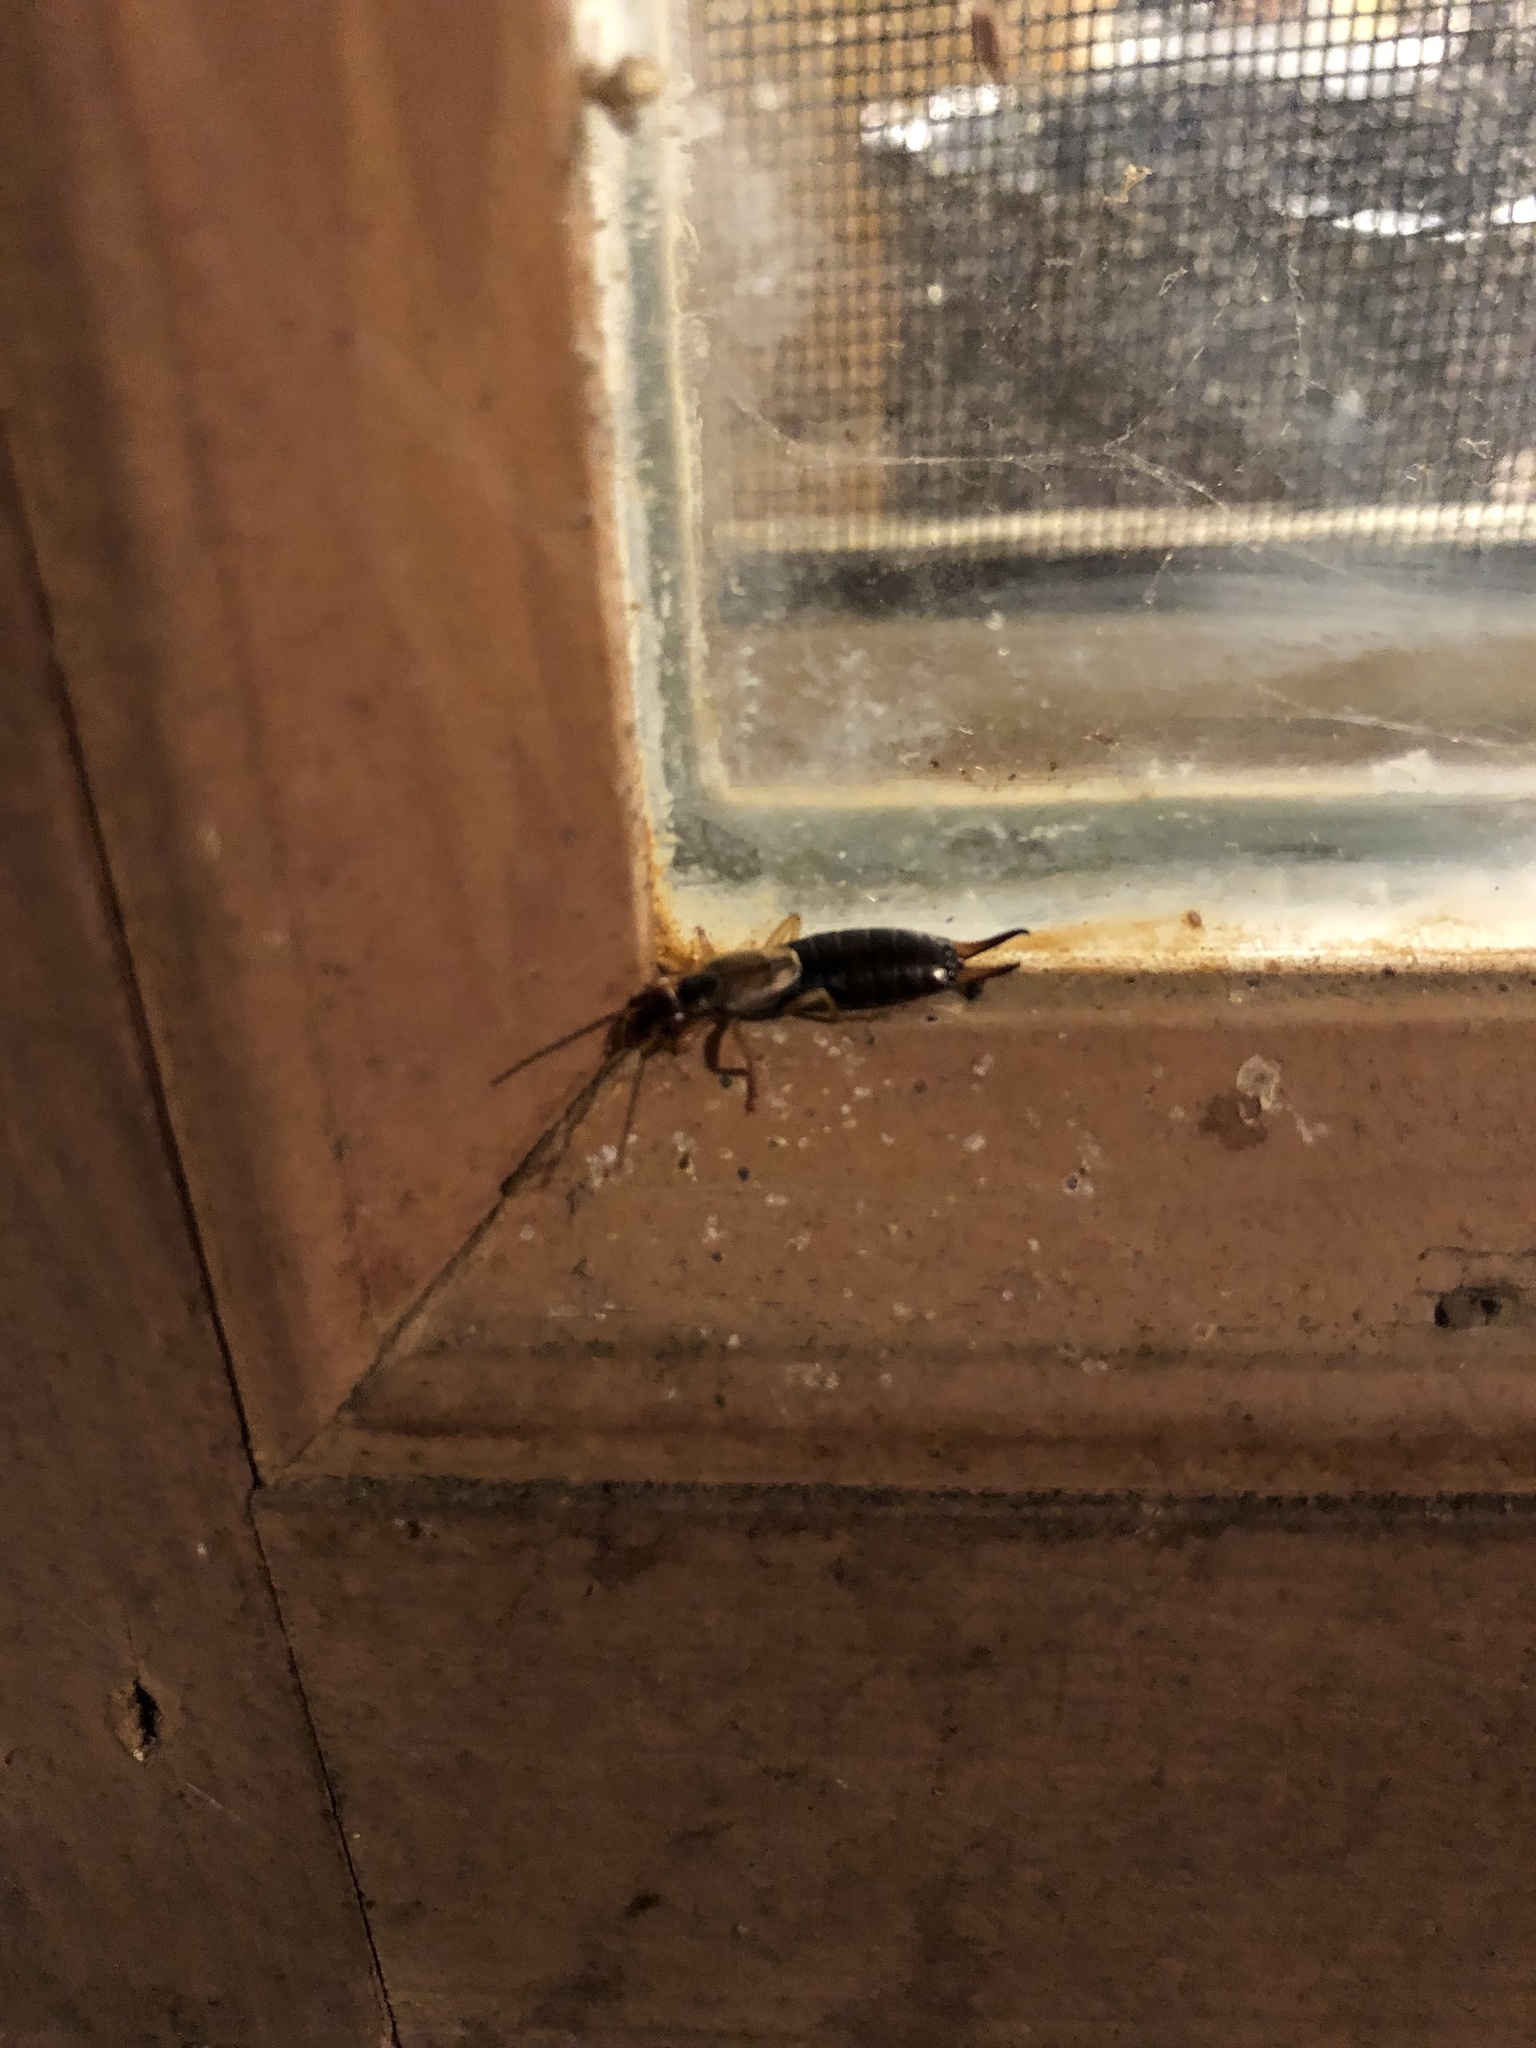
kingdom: Animalia
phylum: Arthropoda
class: Insecta
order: Dermaptera
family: Forficulidae
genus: Forficula
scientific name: Forficula
